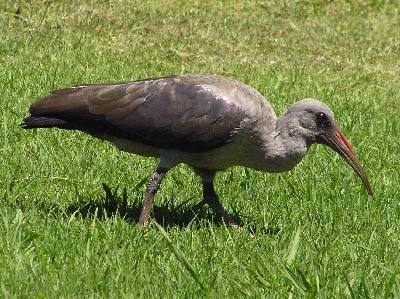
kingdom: Animalia
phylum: Chordata
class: Aves
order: Pelecaniformes
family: Threskiornithidae
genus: Bostrychia
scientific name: Bostrychia hagedash
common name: Hadada ibis
